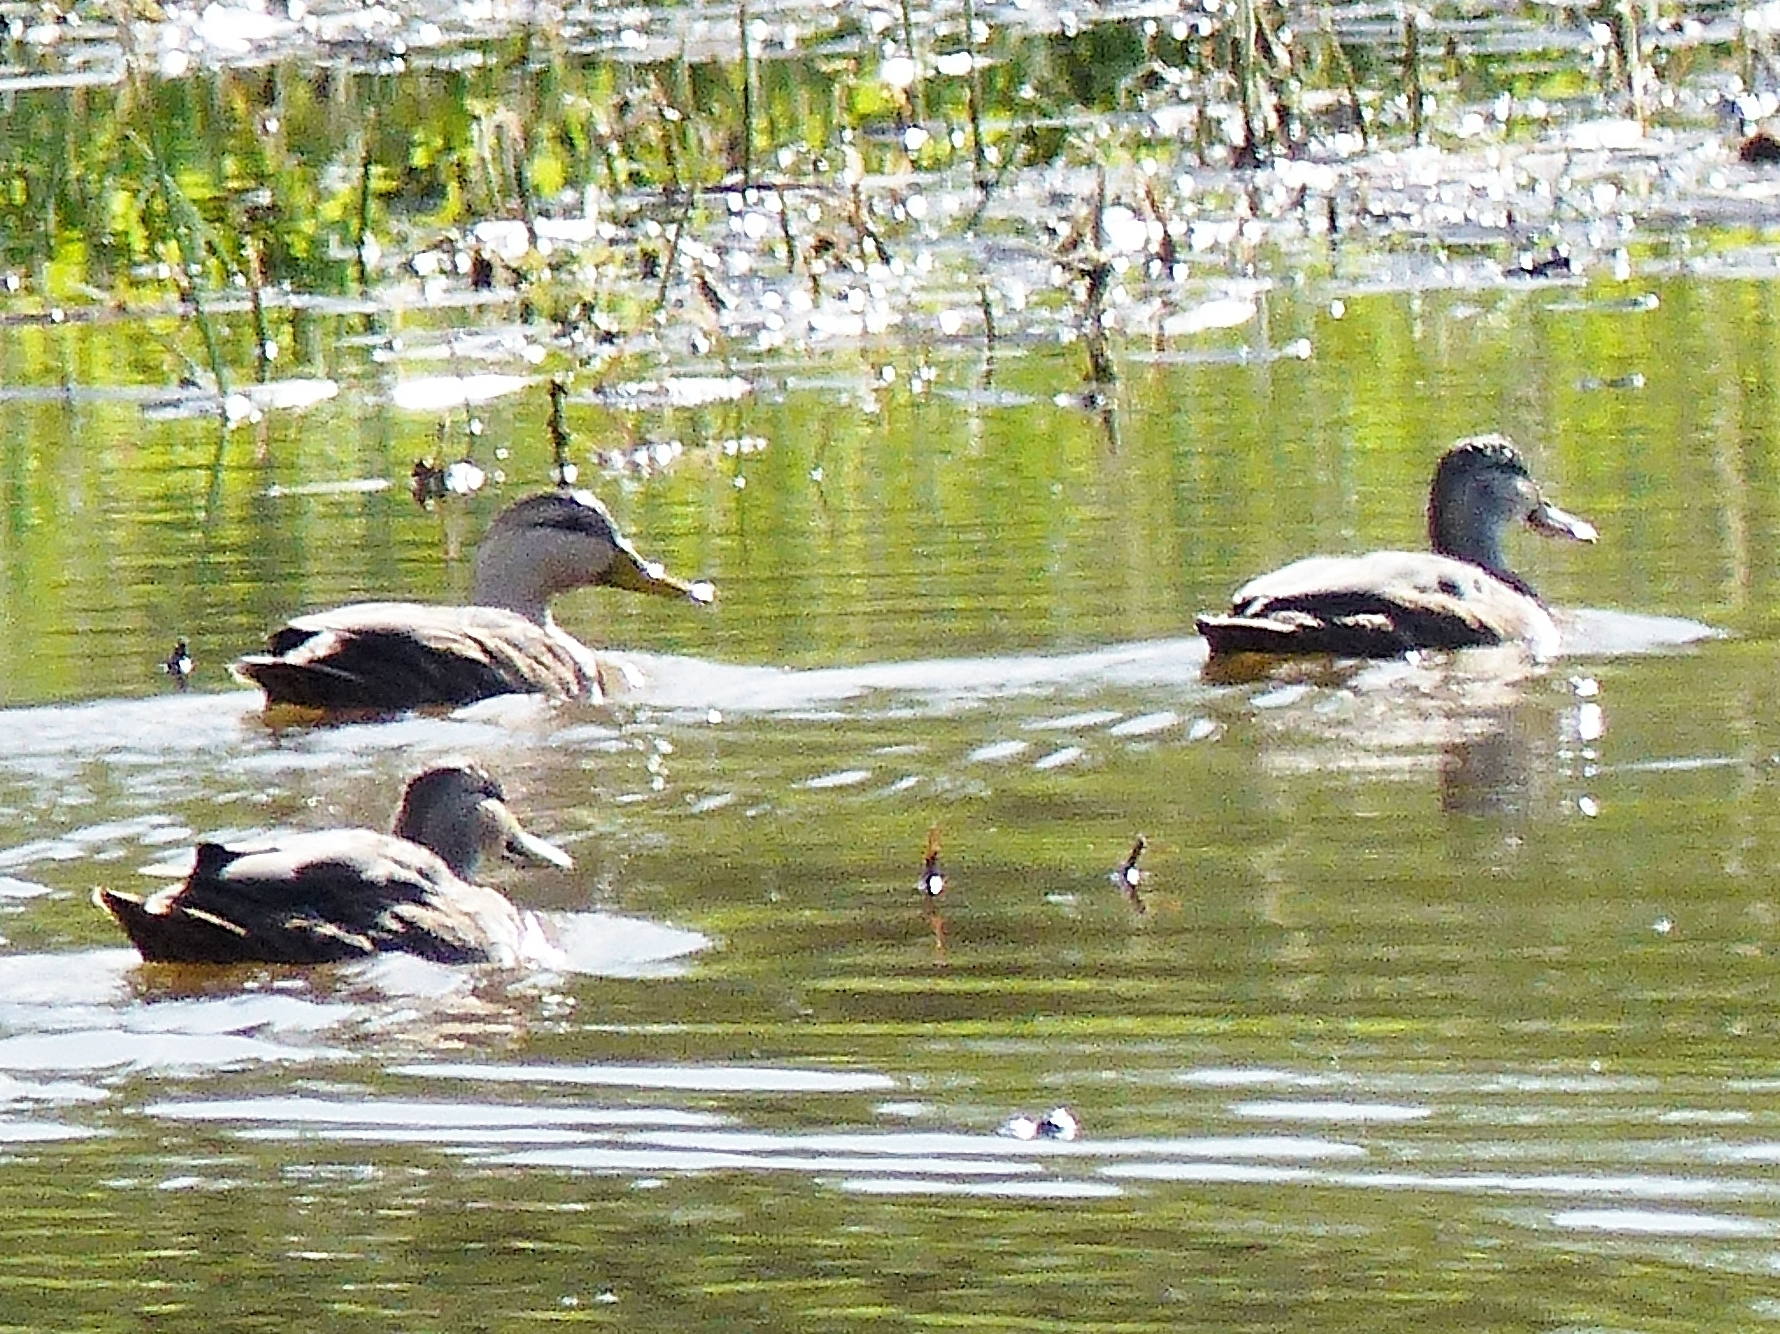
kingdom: Animalia
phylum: Chordata
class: Aves
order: Anseriformes
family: Anatidae
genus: Anas
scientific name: Anas fulvigula
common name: Mottled duck
